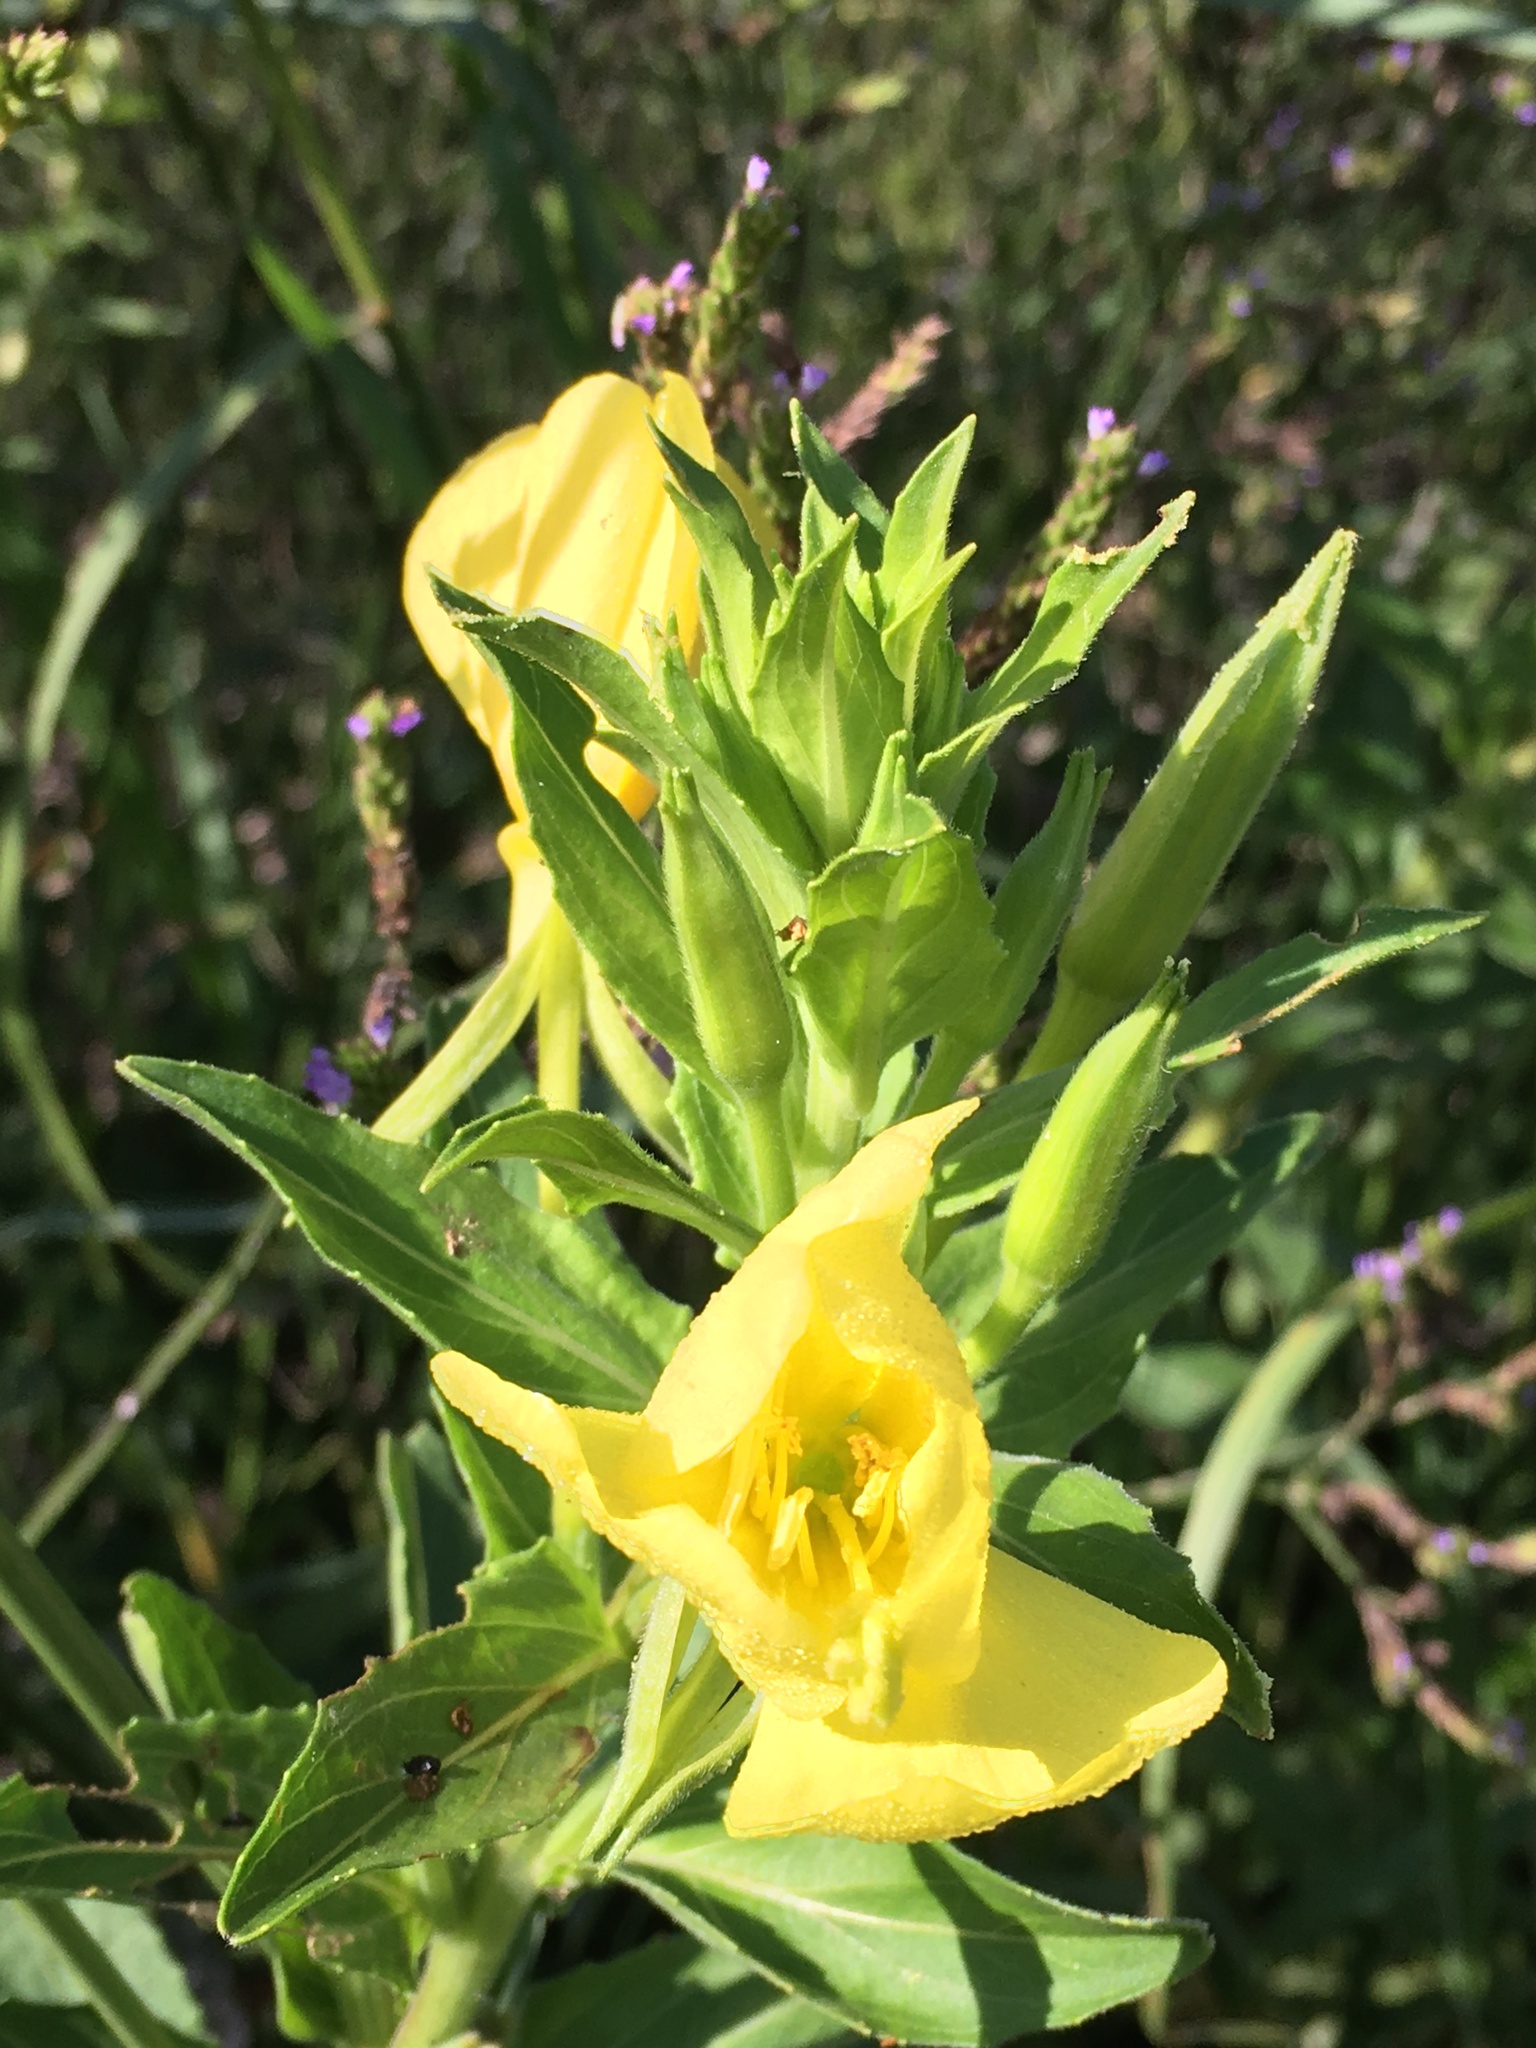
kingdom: Plantae
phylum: Tracheophyta
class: Magnoliopsida
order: Myrtales
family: Onagraceae
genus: Oenothera
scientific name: Oenothera biennis
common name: Common evening-primrose
